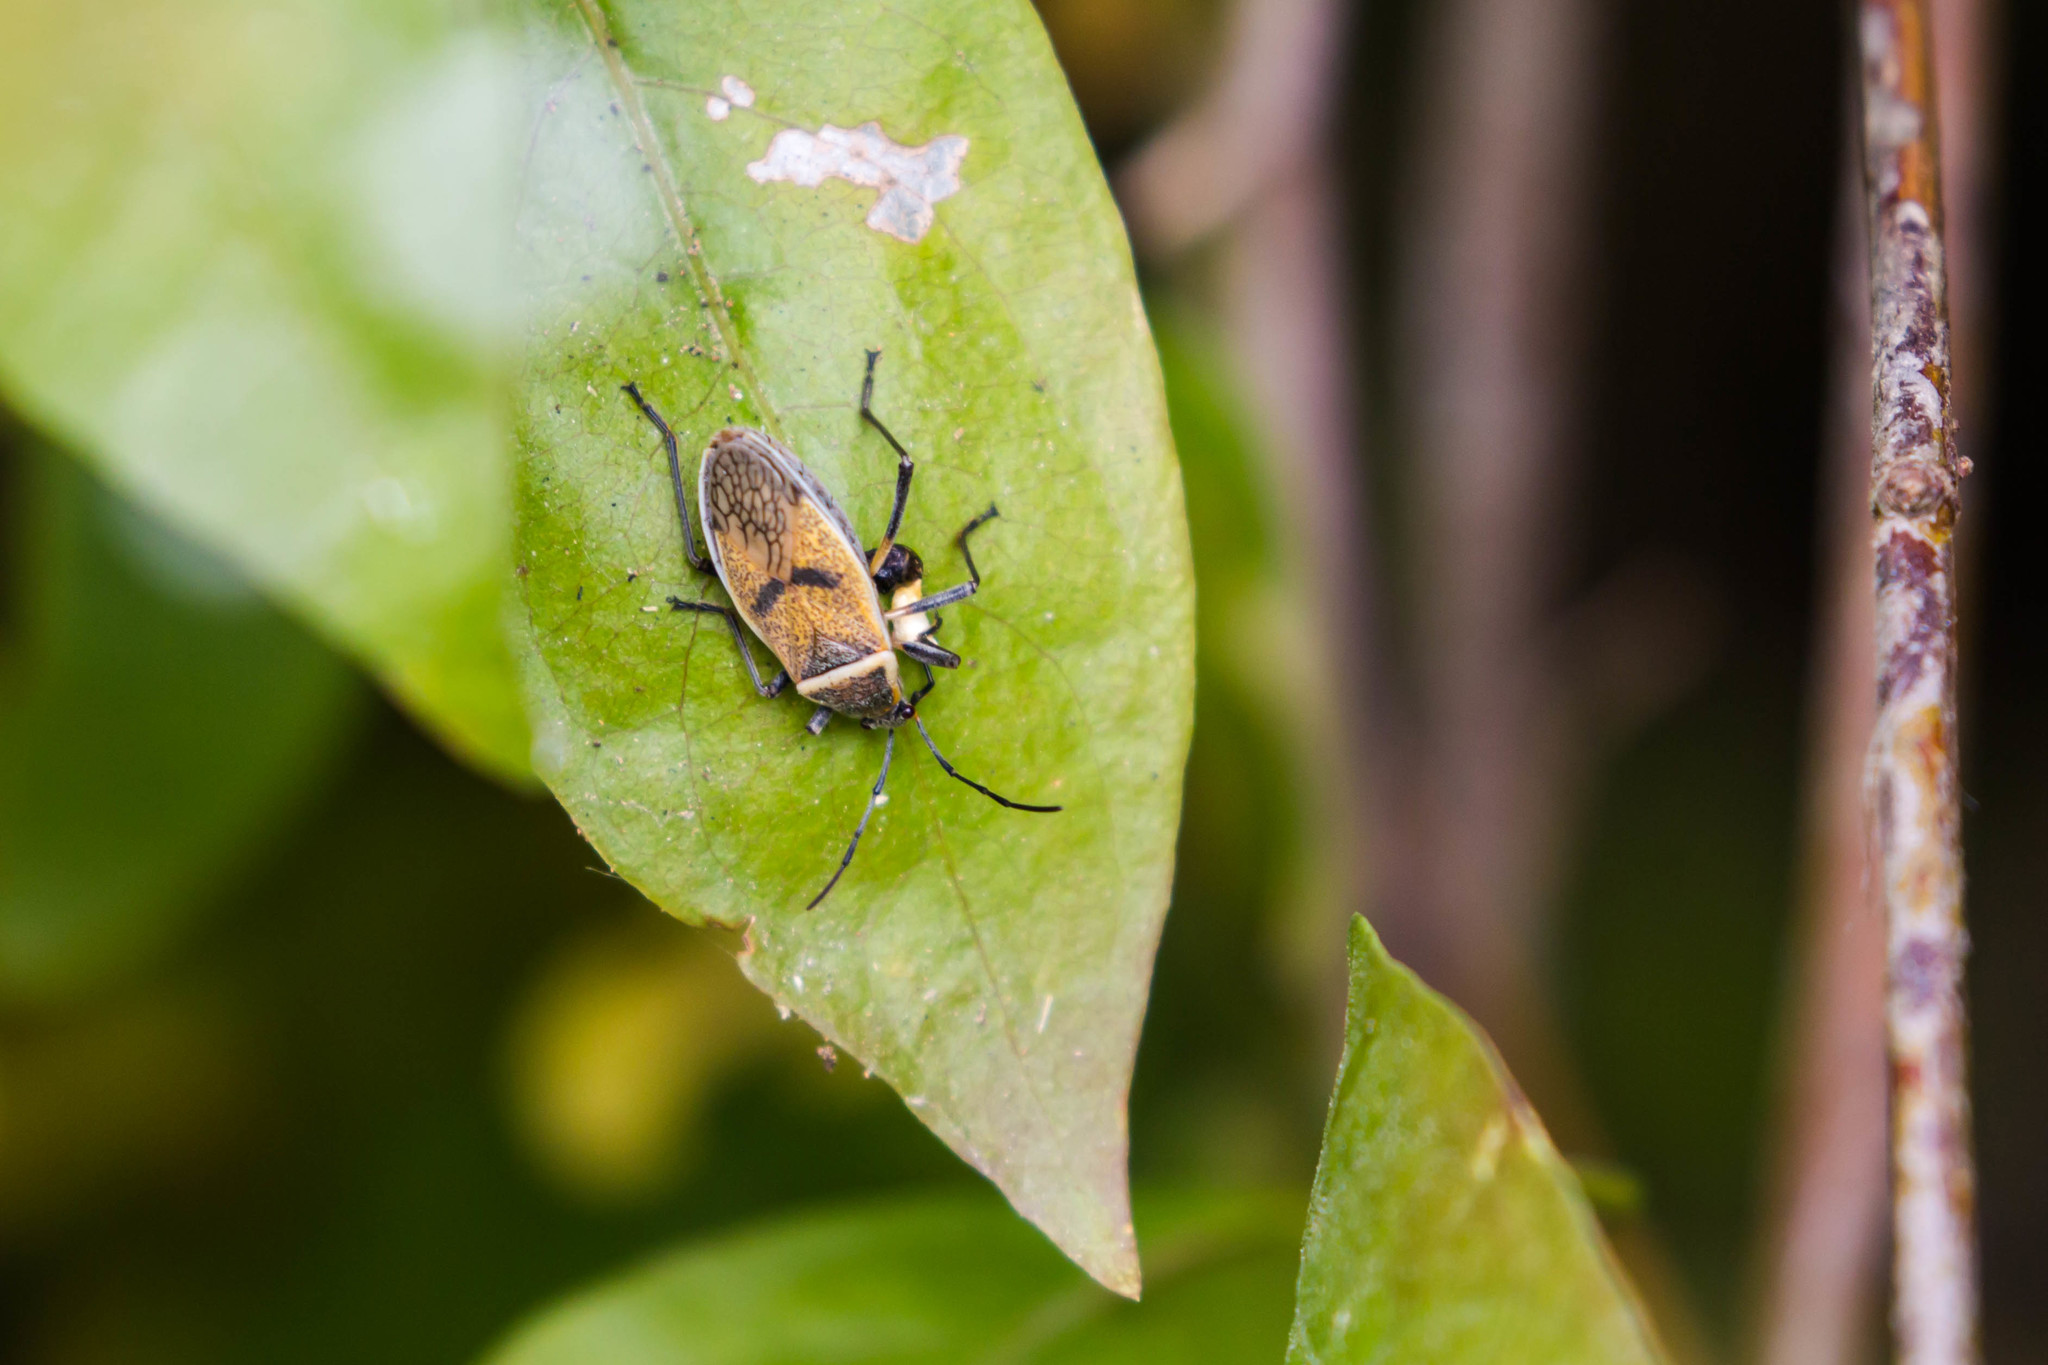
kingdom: Animalia
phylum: Arthropoda
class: Insecta
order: Hemiptera
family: Largidae
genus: Largus
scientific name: Largus maculatus
